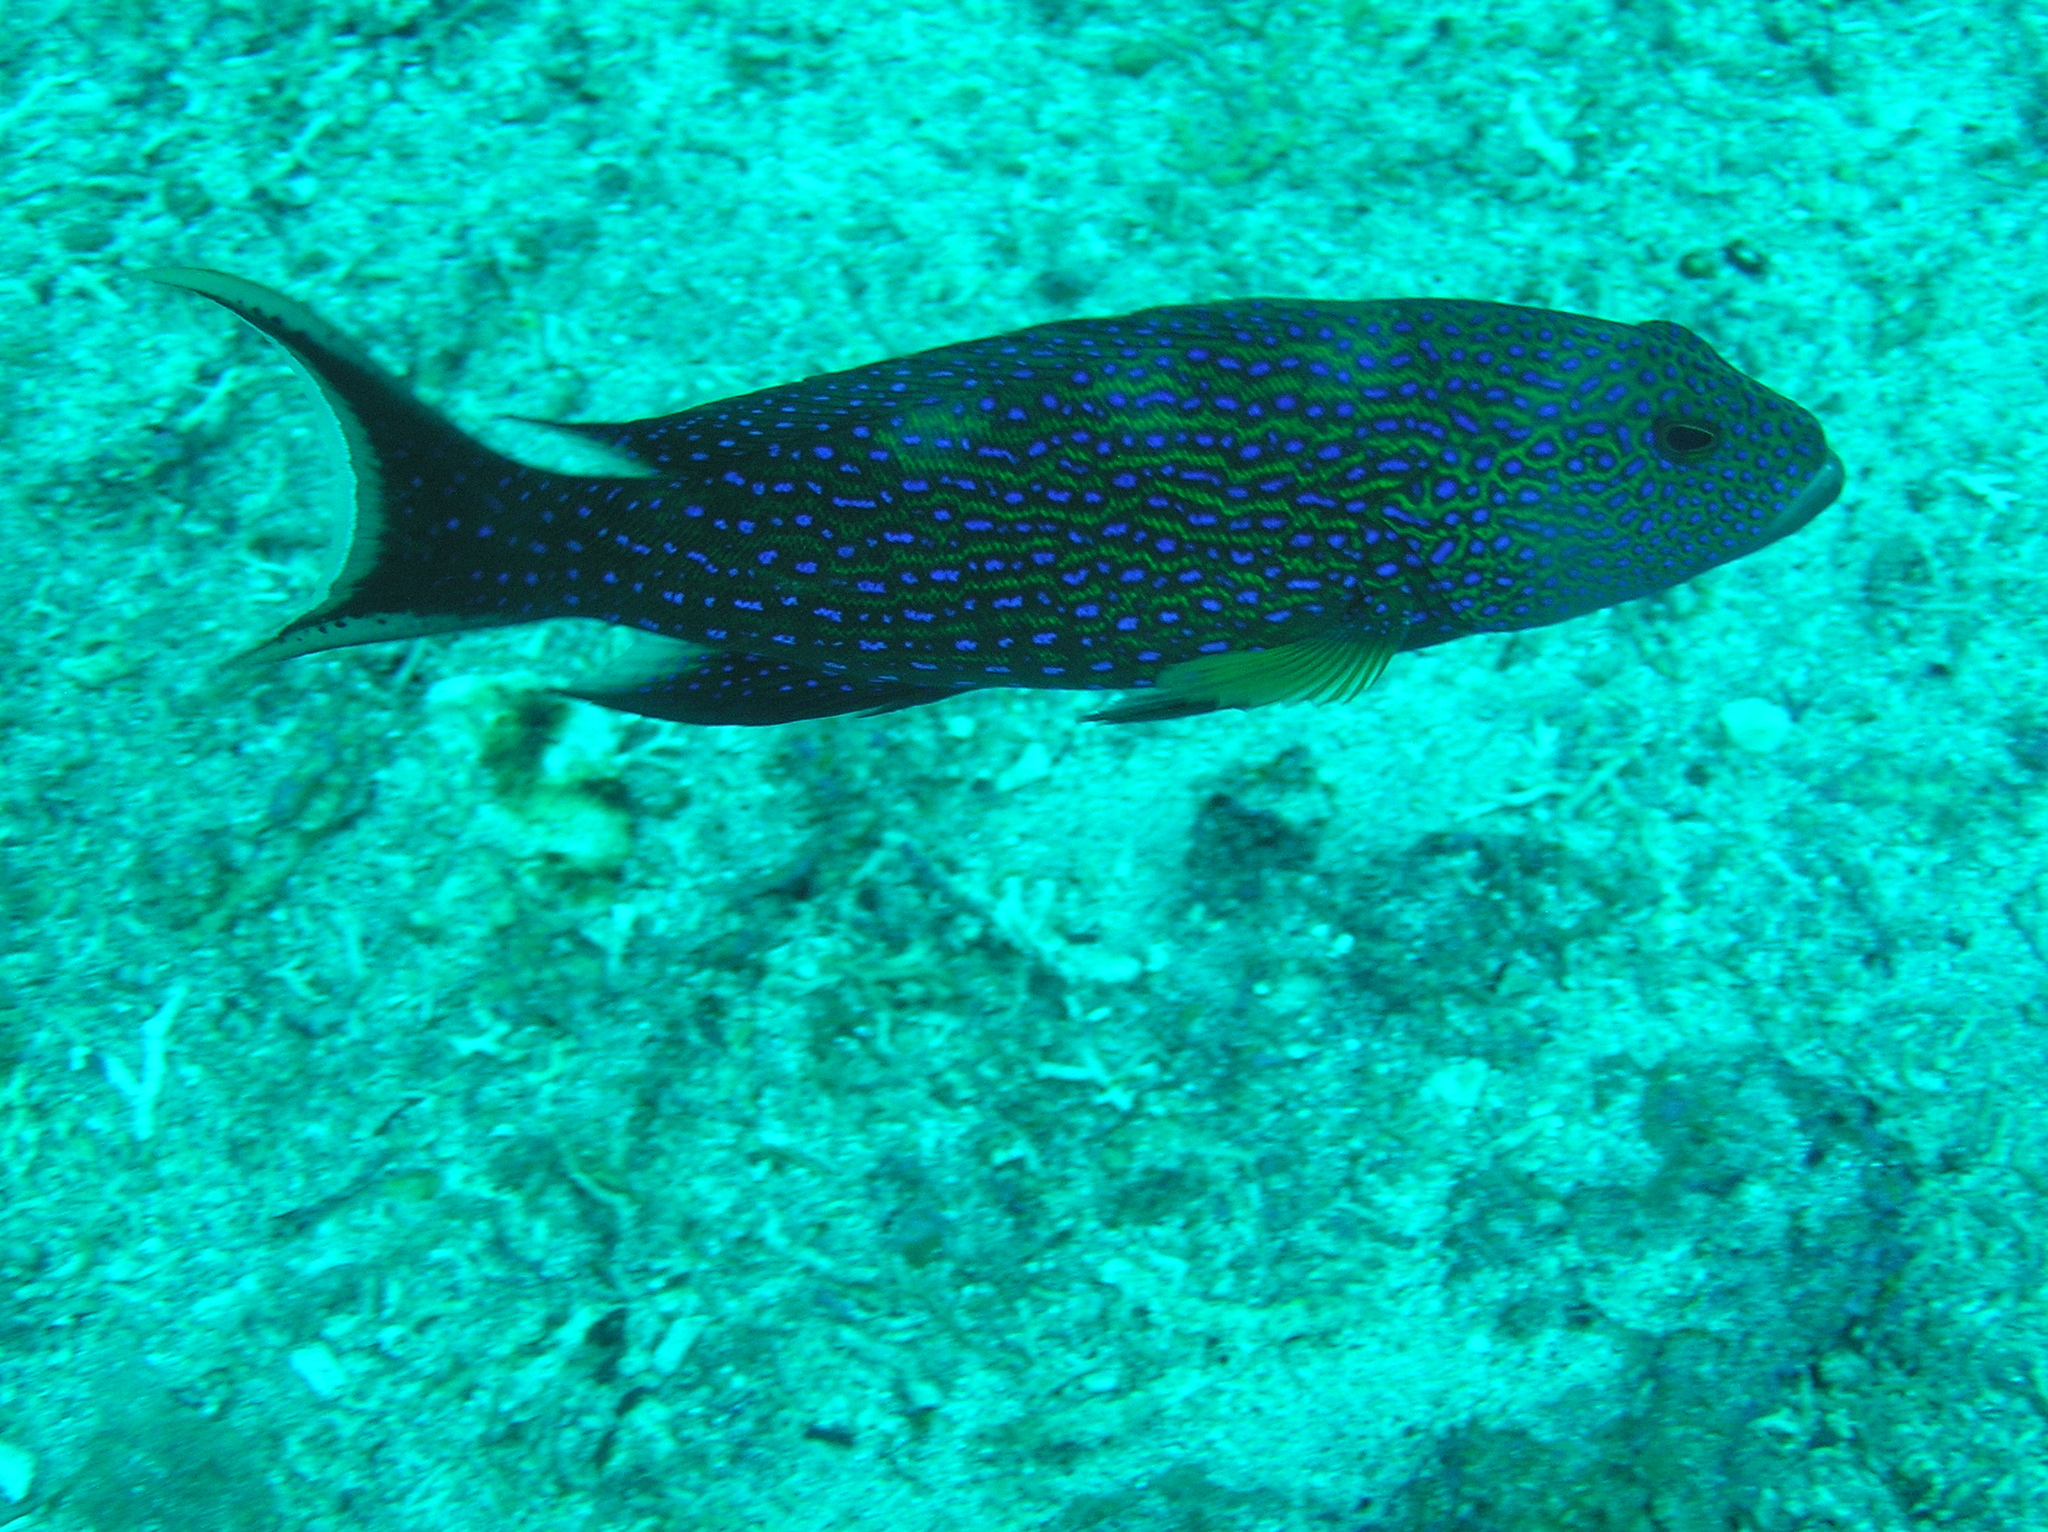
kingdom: Animalia
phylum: Chordata
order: Perciformes
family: Serranidae
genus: Variola
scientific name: Variola albimarginata
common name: Lunar-tailed grouper
